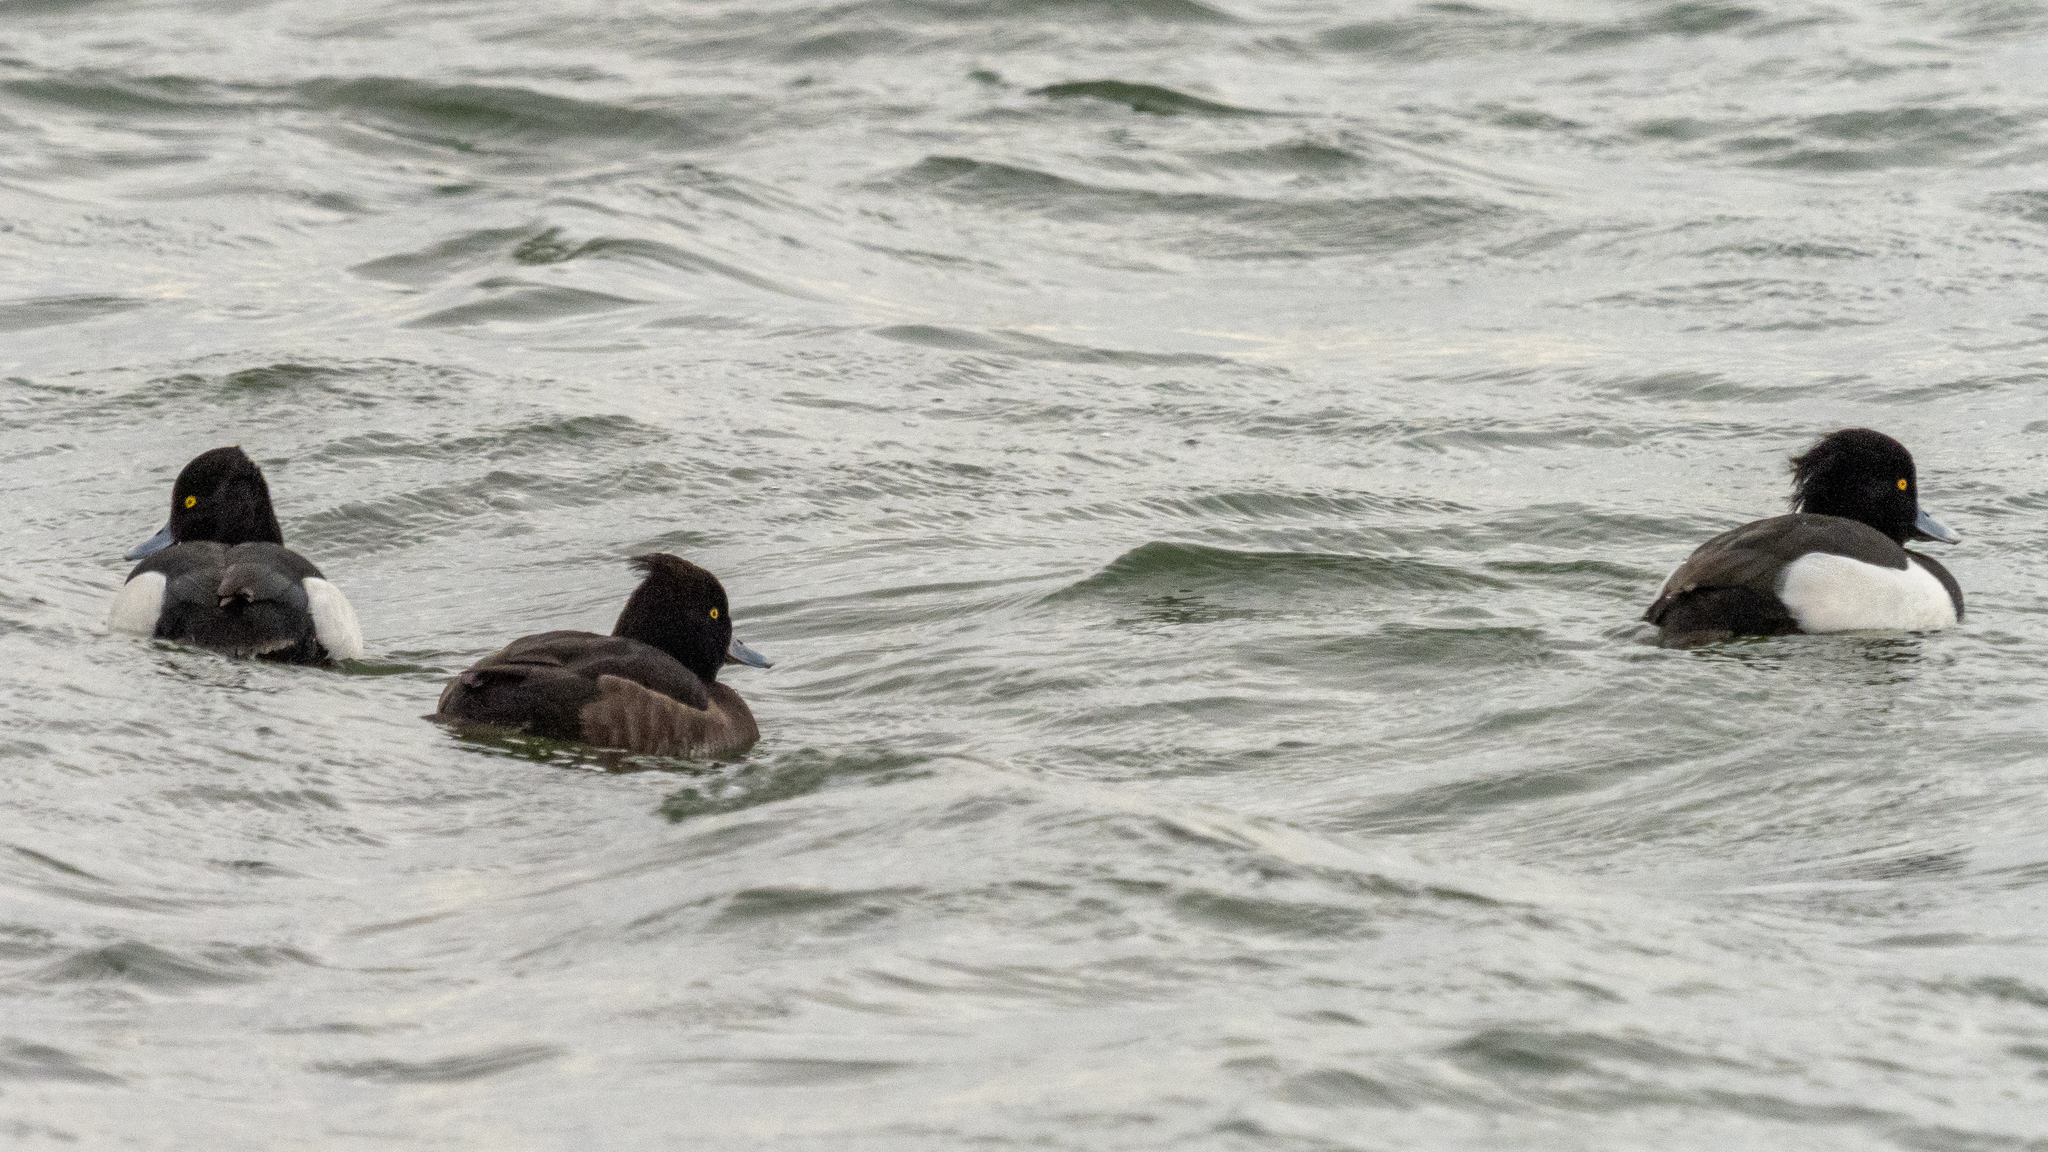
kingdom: Animalia
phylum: Chordata
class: Aves
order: Anseriformes
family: Anatidae
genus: Aythya
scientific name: Aythya fuligula
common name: Tufted duck
